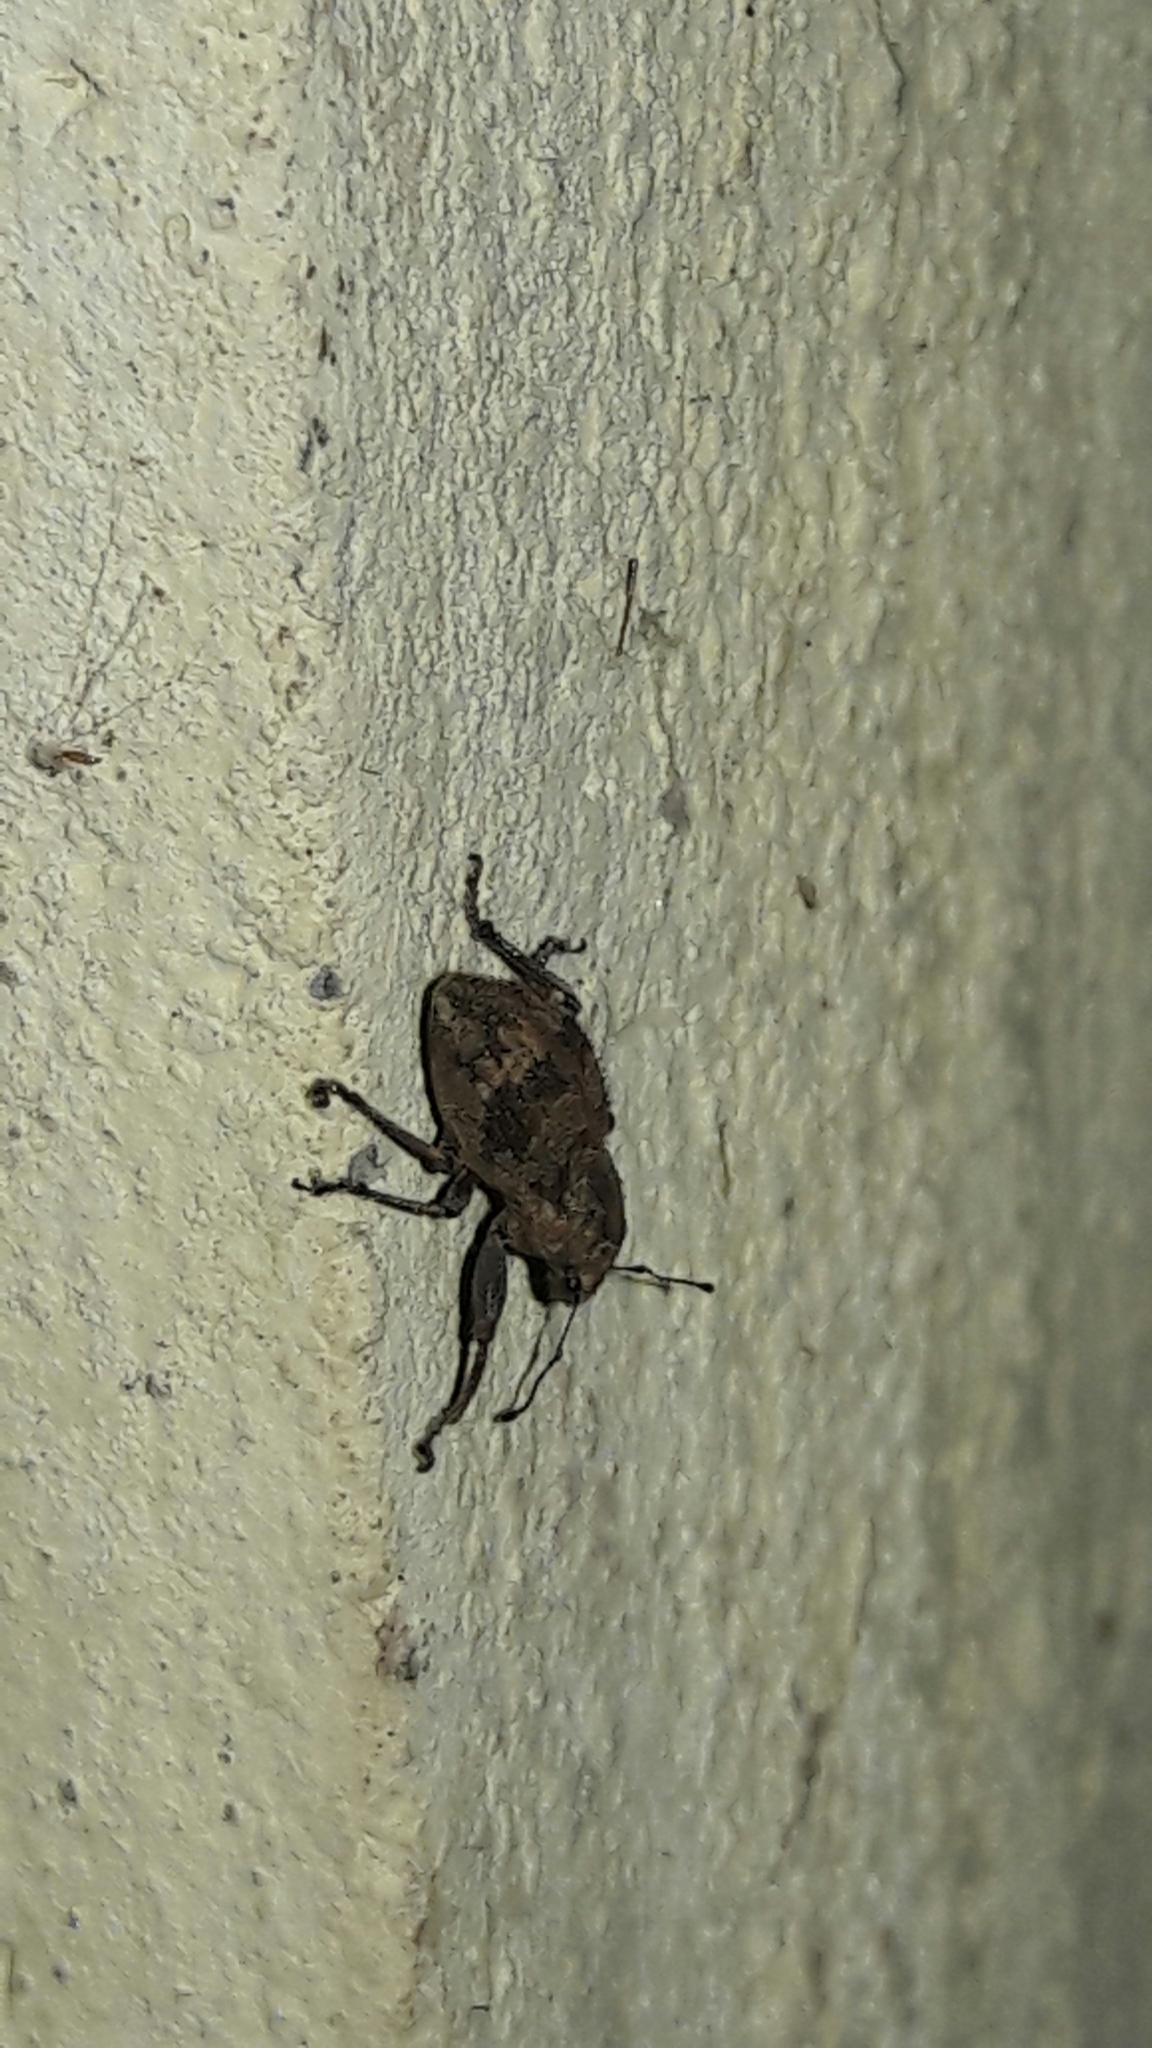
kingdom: Animalia
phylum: Arthropoda
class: Insecta
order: Coleoptera
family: Curculionidae
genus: Pantomorus
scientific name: Pantomorus
